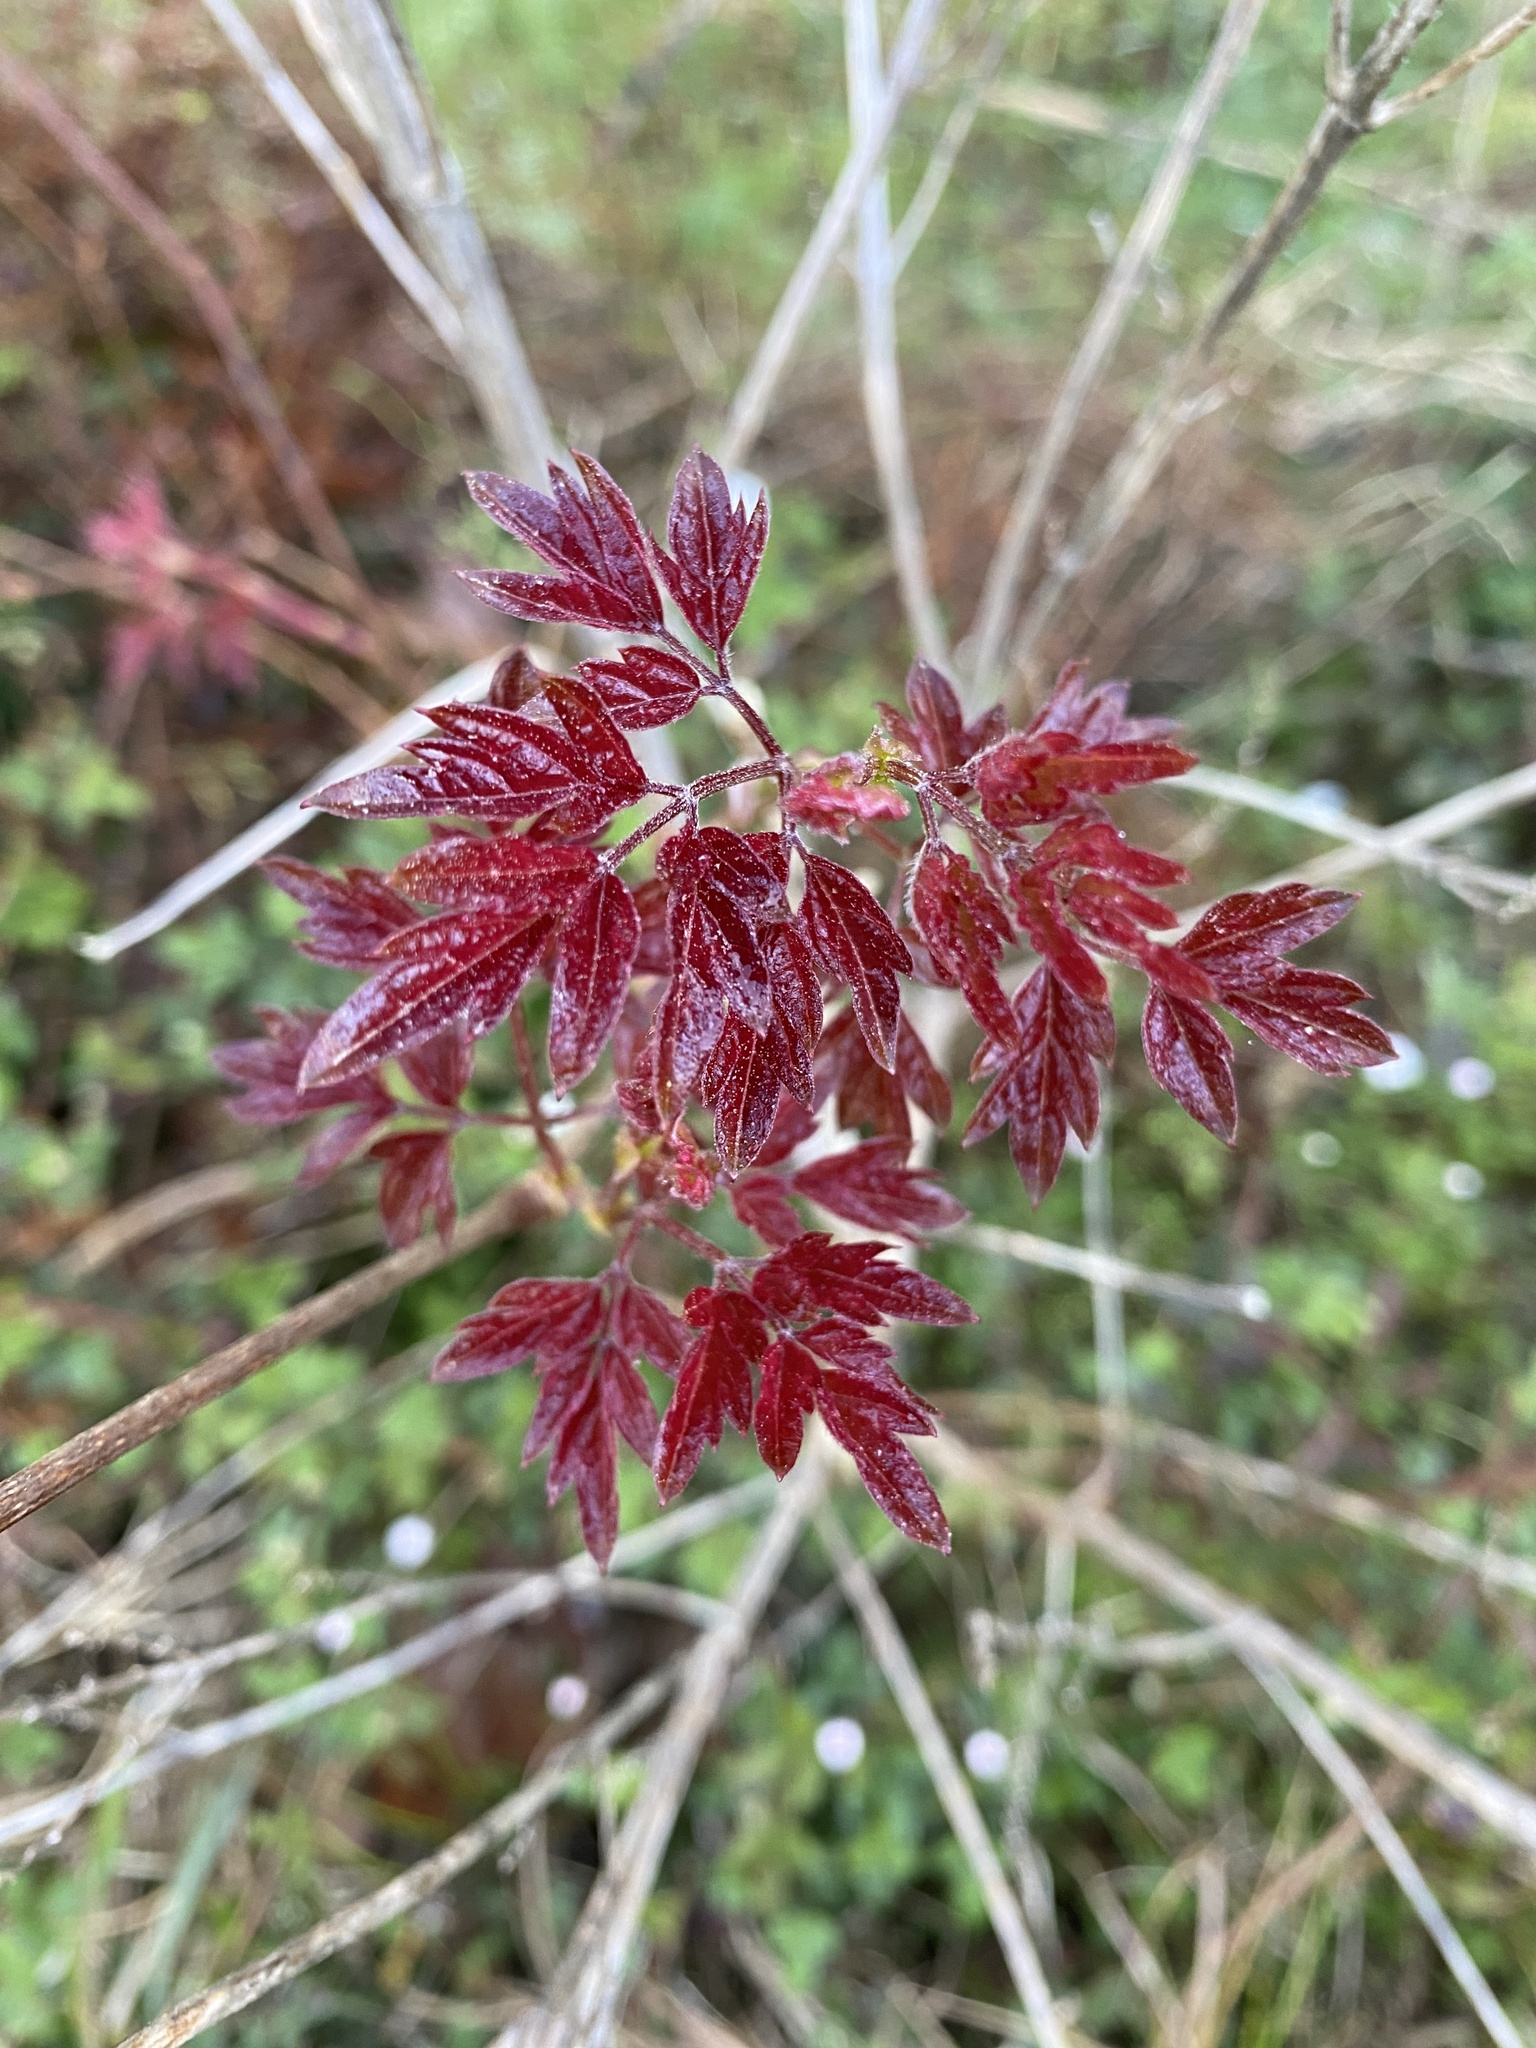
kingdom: Plantae
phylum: Tracheophyta
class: Magnoliopsida
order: Vitales
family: Vitaceae
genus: Nekemias
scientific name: Nekemias arborea
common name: Peppervine
